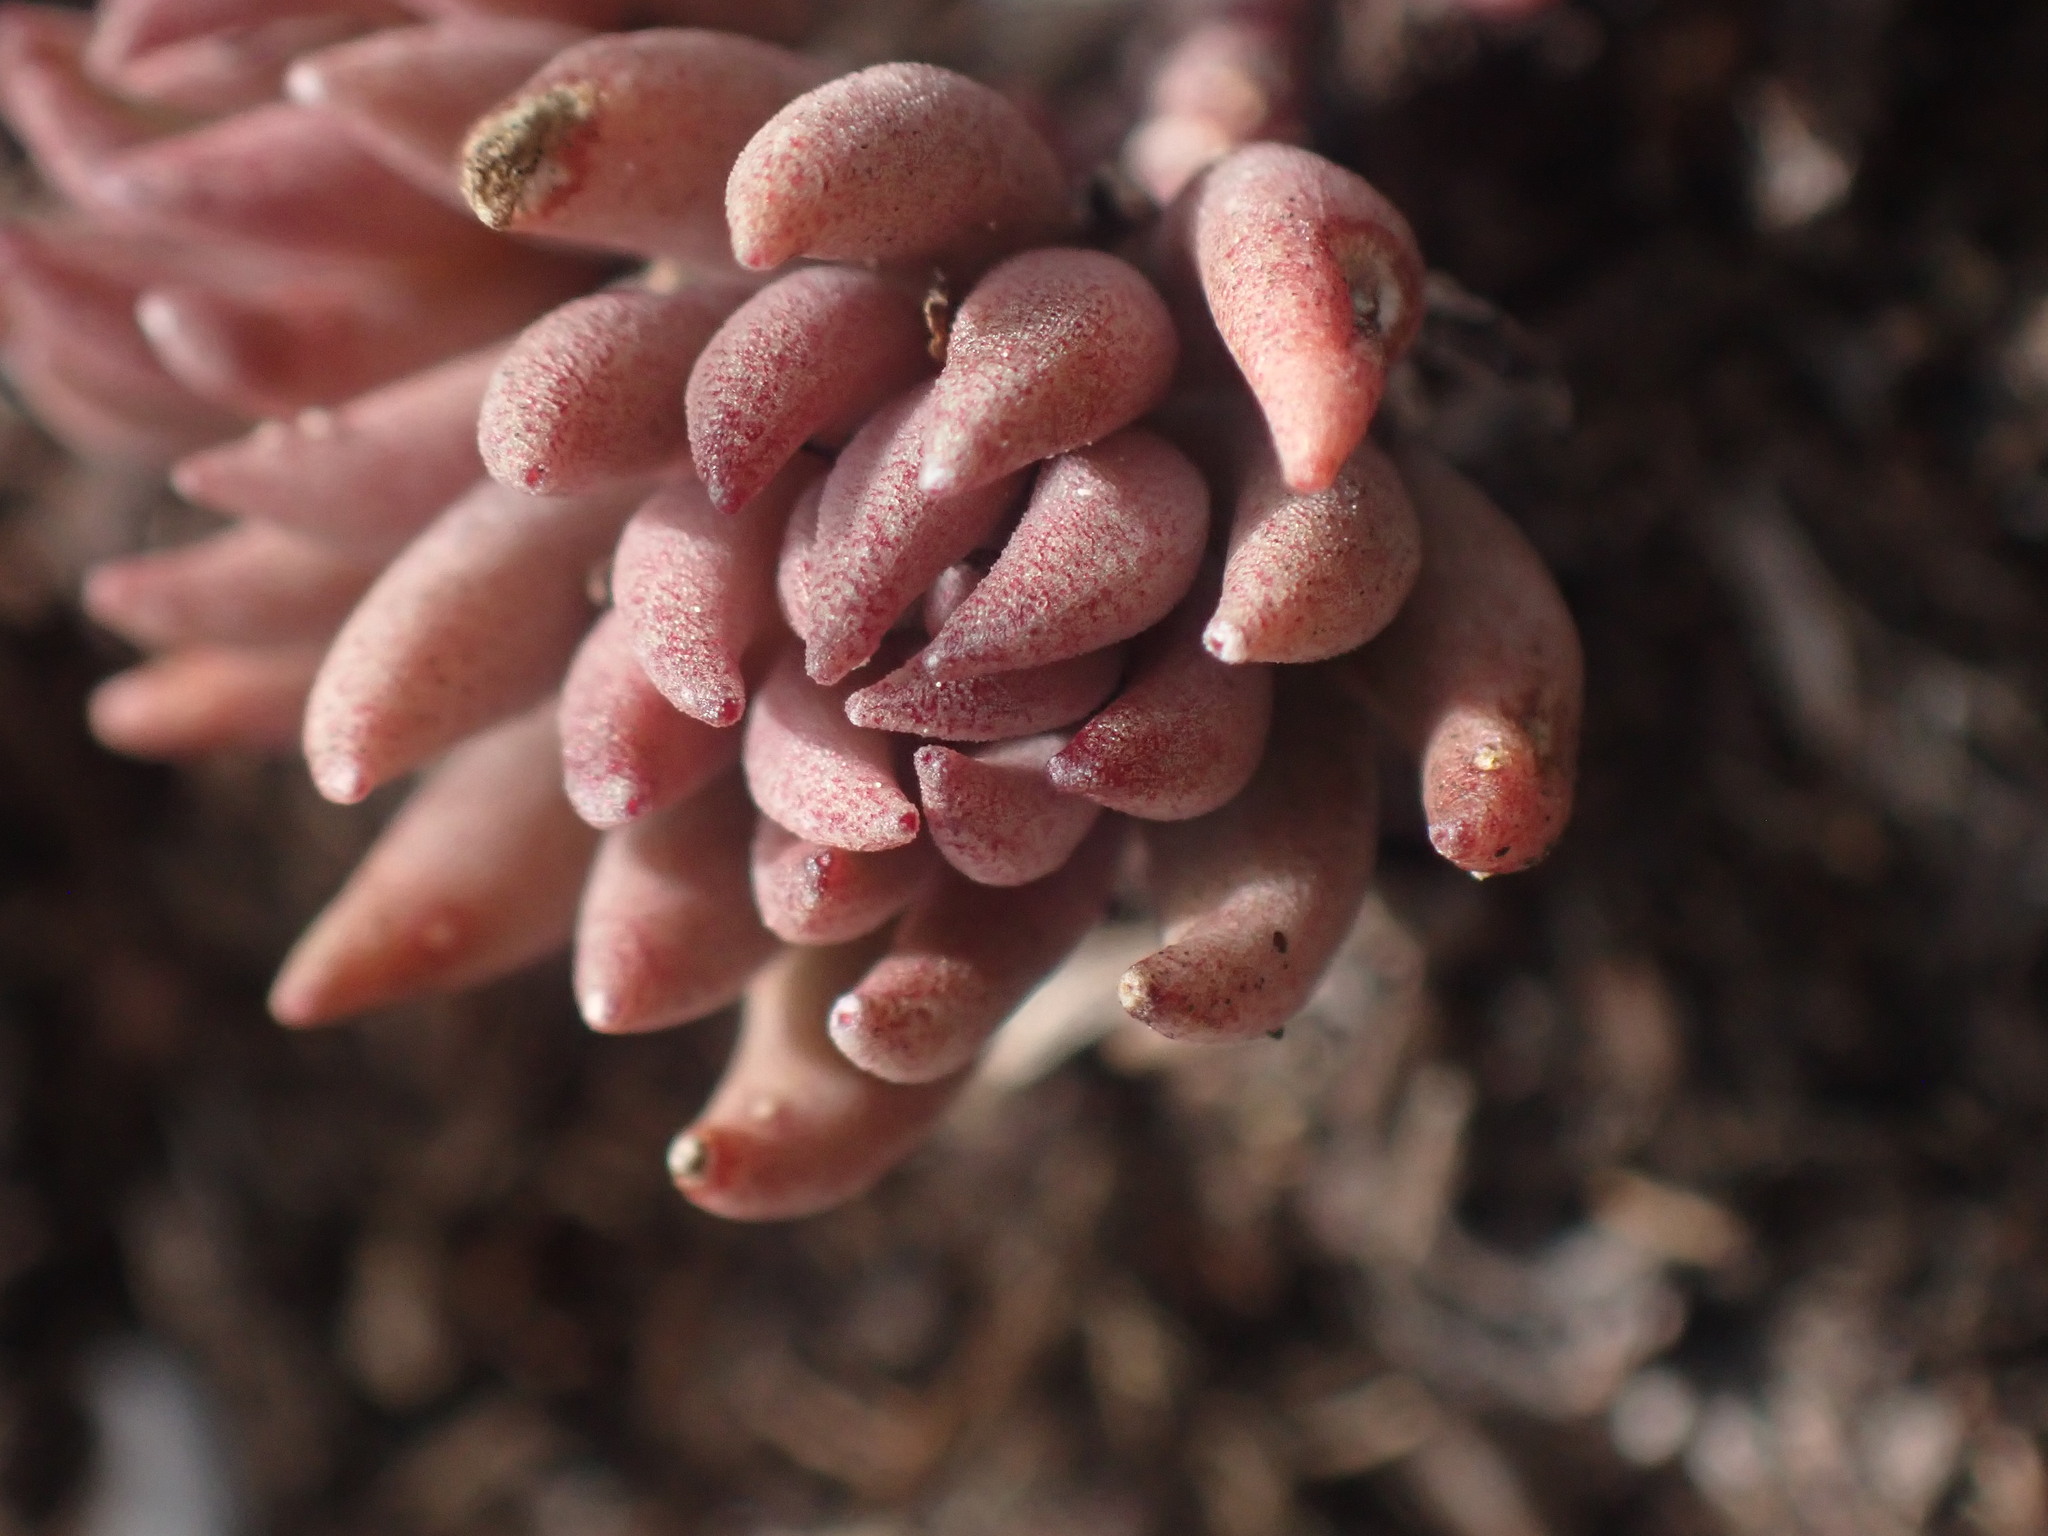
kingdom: Plantae
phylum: Tracheophyta
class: Magnoliopsida
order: Saxifragales
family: Crassulaceae
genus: Sedum
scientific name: Sedum lanceolatum
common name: Common stonecrop
